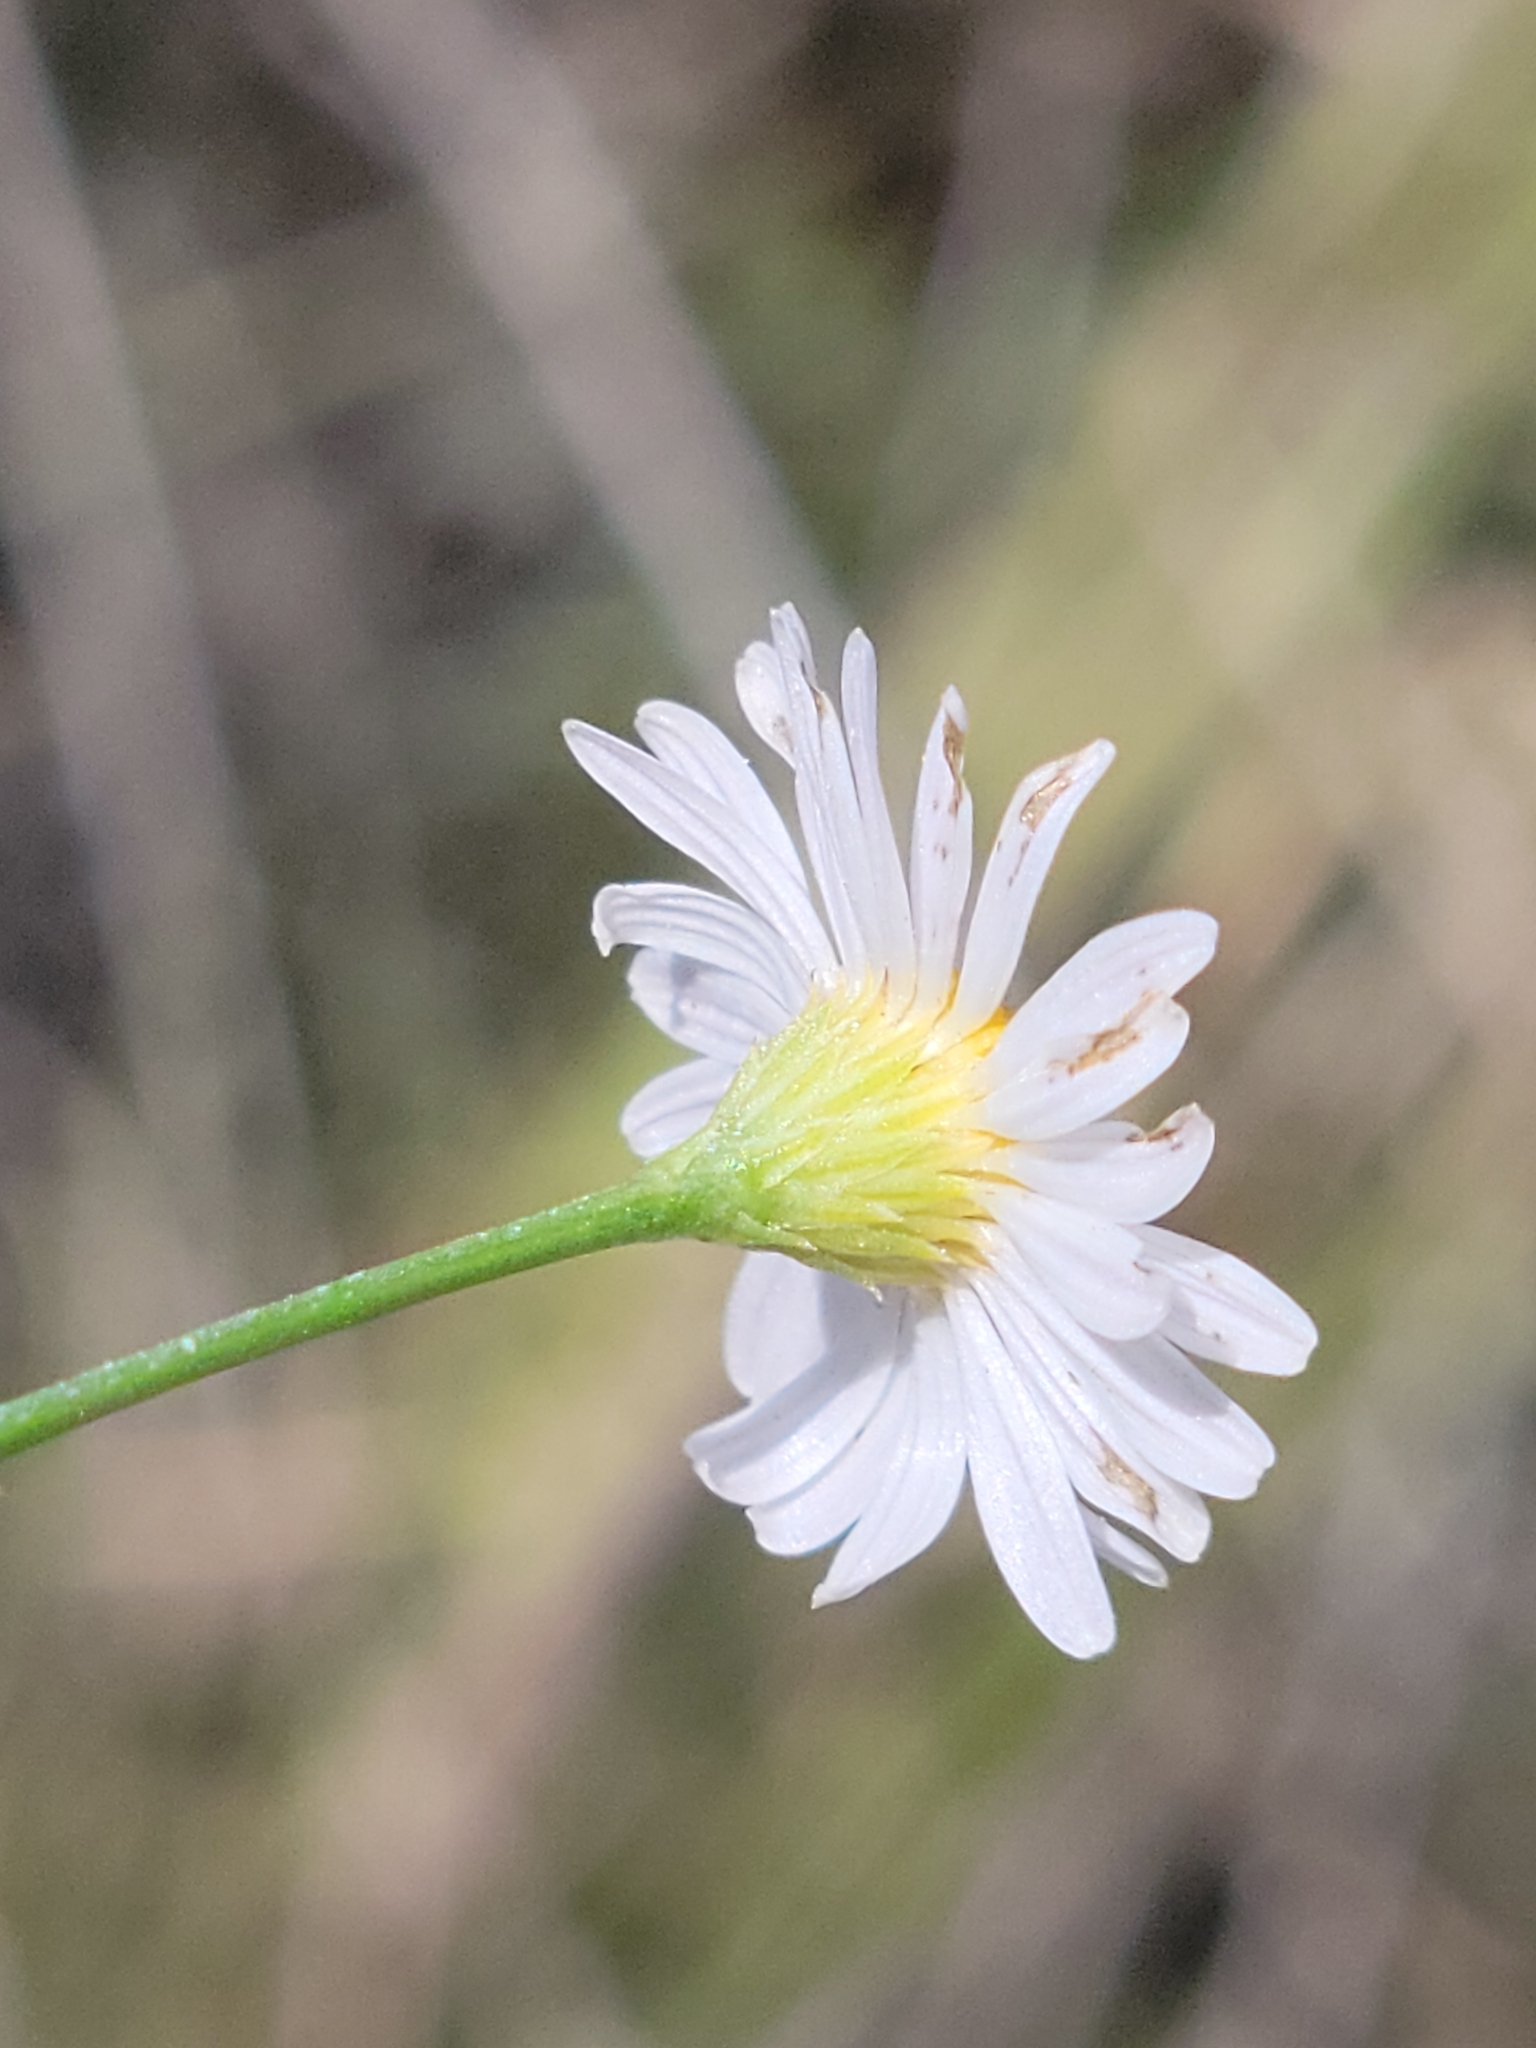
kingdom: Plantae
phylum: Tracheophyta
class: Magnoliopsida
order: Asterales
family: Asteraceae
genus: Boltonia
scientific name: Boltonia diffusa
